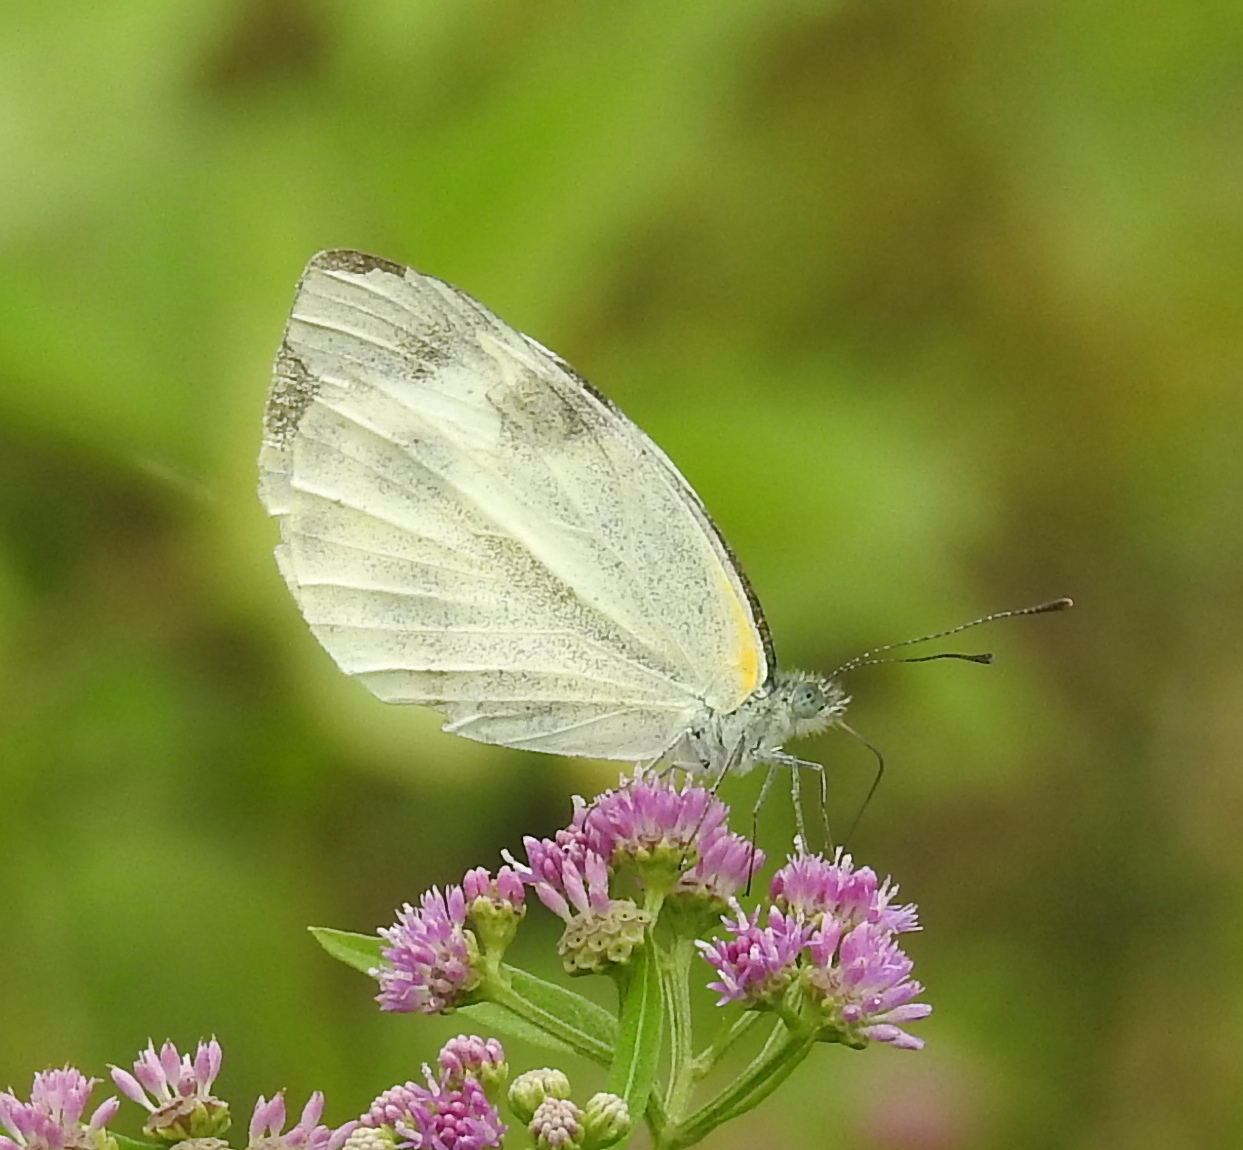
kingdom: Animalia
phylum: Arthropoda
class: Insecta
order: Lepidoptera
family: Pieridae
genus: Pieris
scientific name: Pieris canidia
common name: Indian cabbage white
